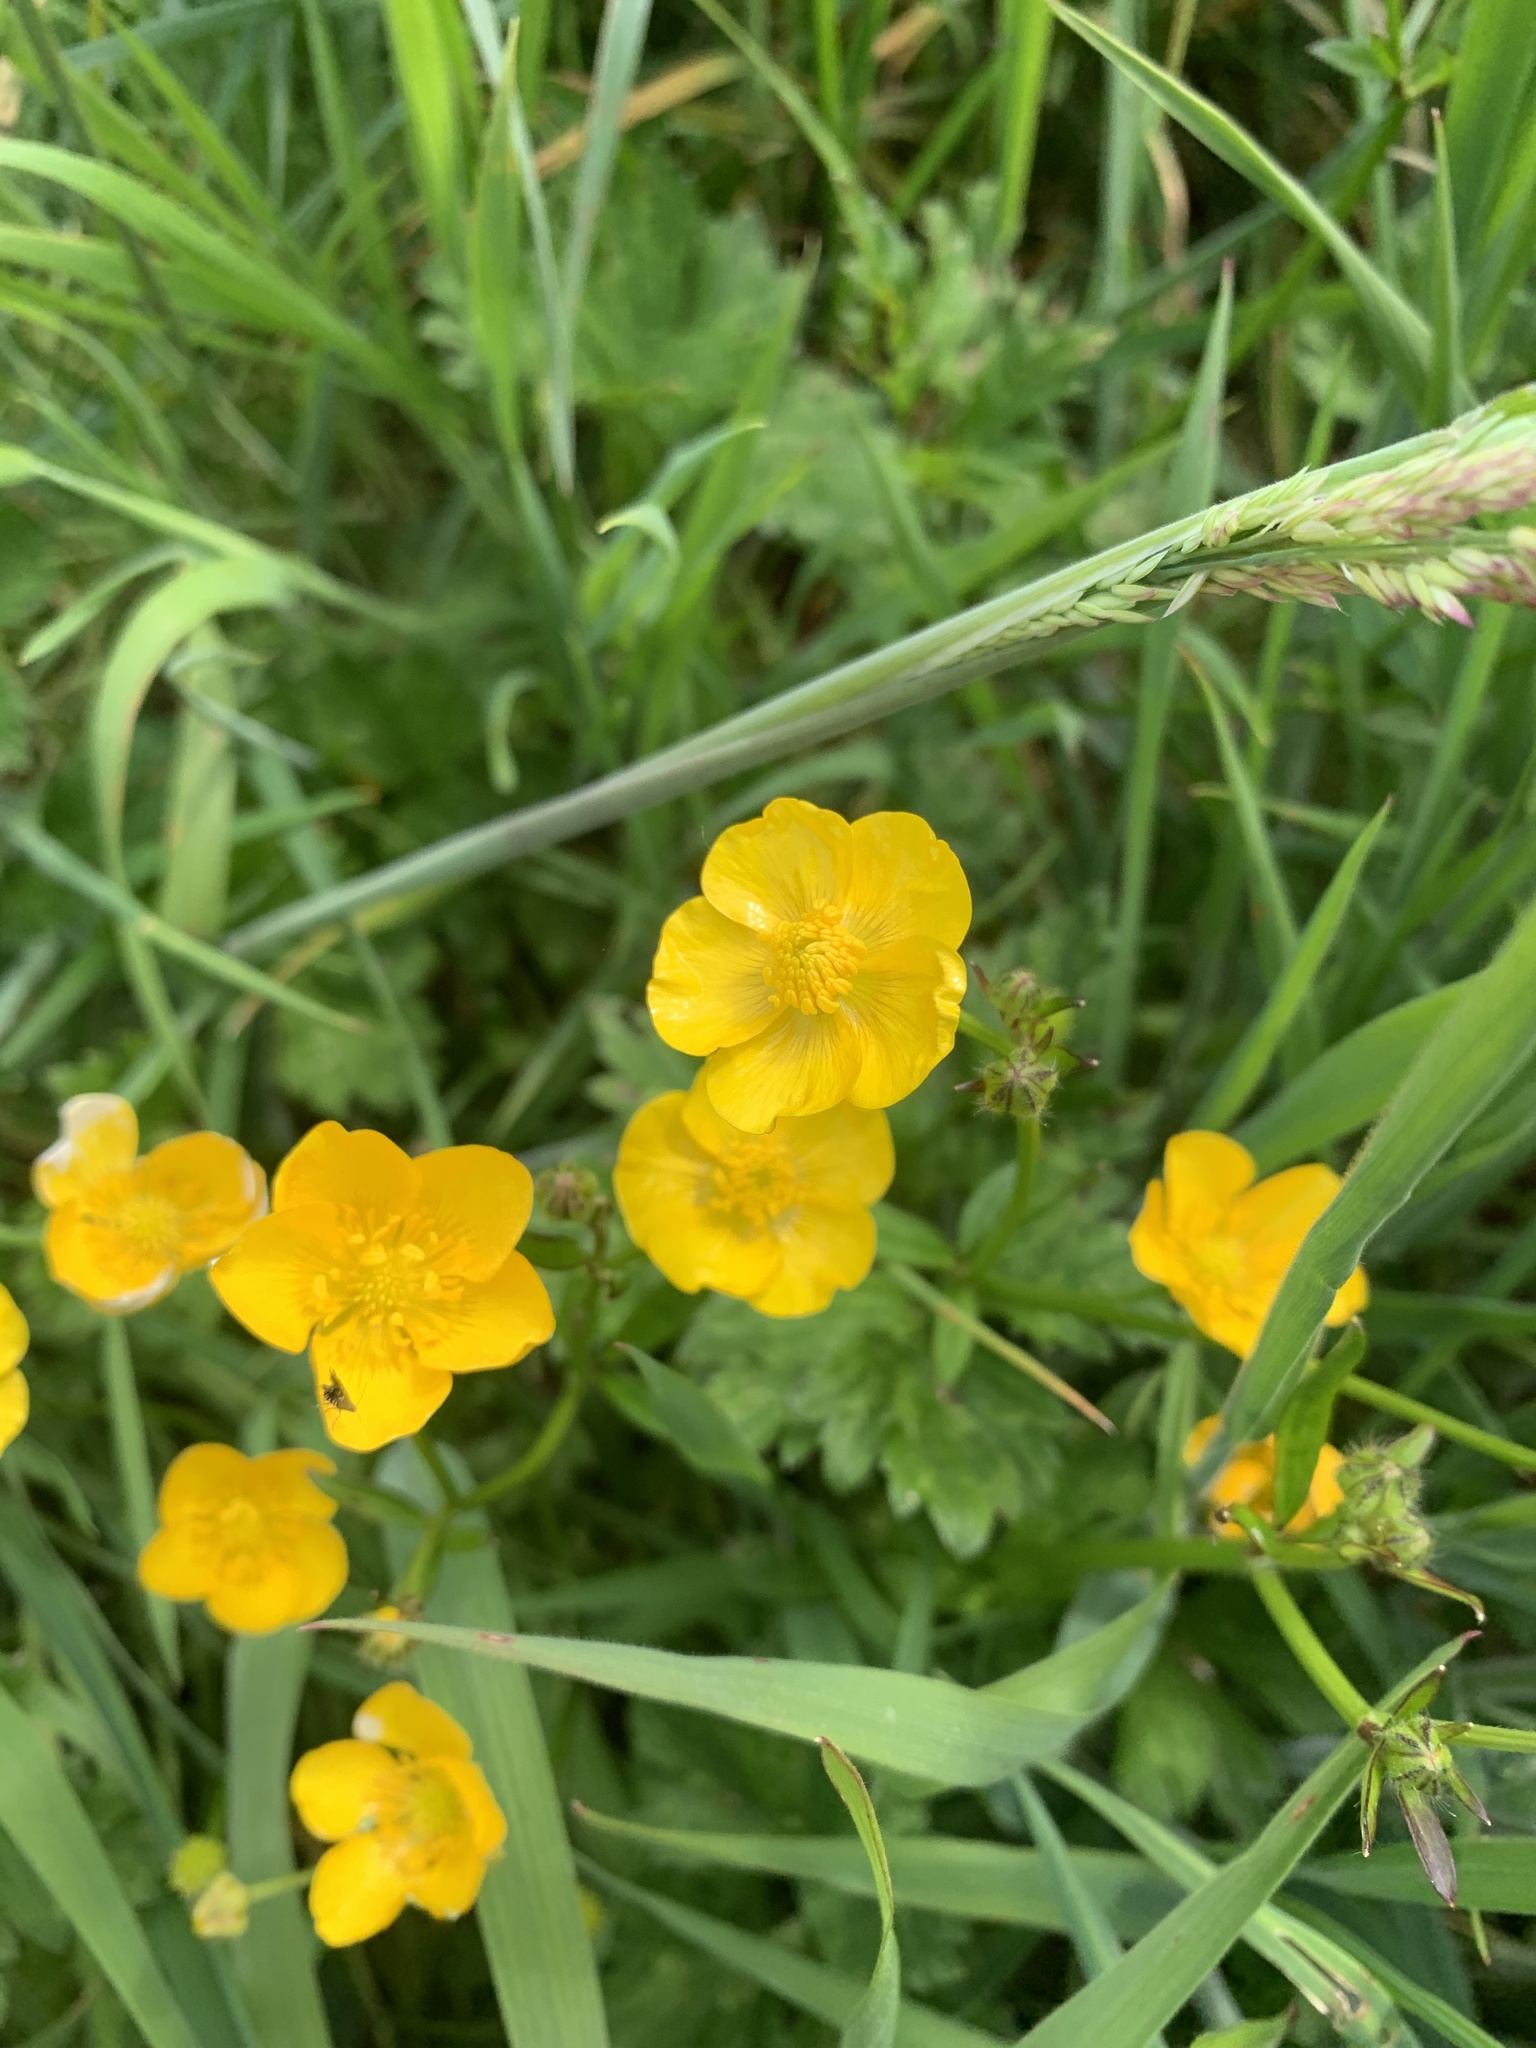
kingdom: Plantae
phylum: Tracheophyta
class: Magnoliopsida
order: Ranunculales
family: Ranunculaceae
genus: Ranunculus
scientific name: Ranunculus repens
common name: Creeping buttercup
